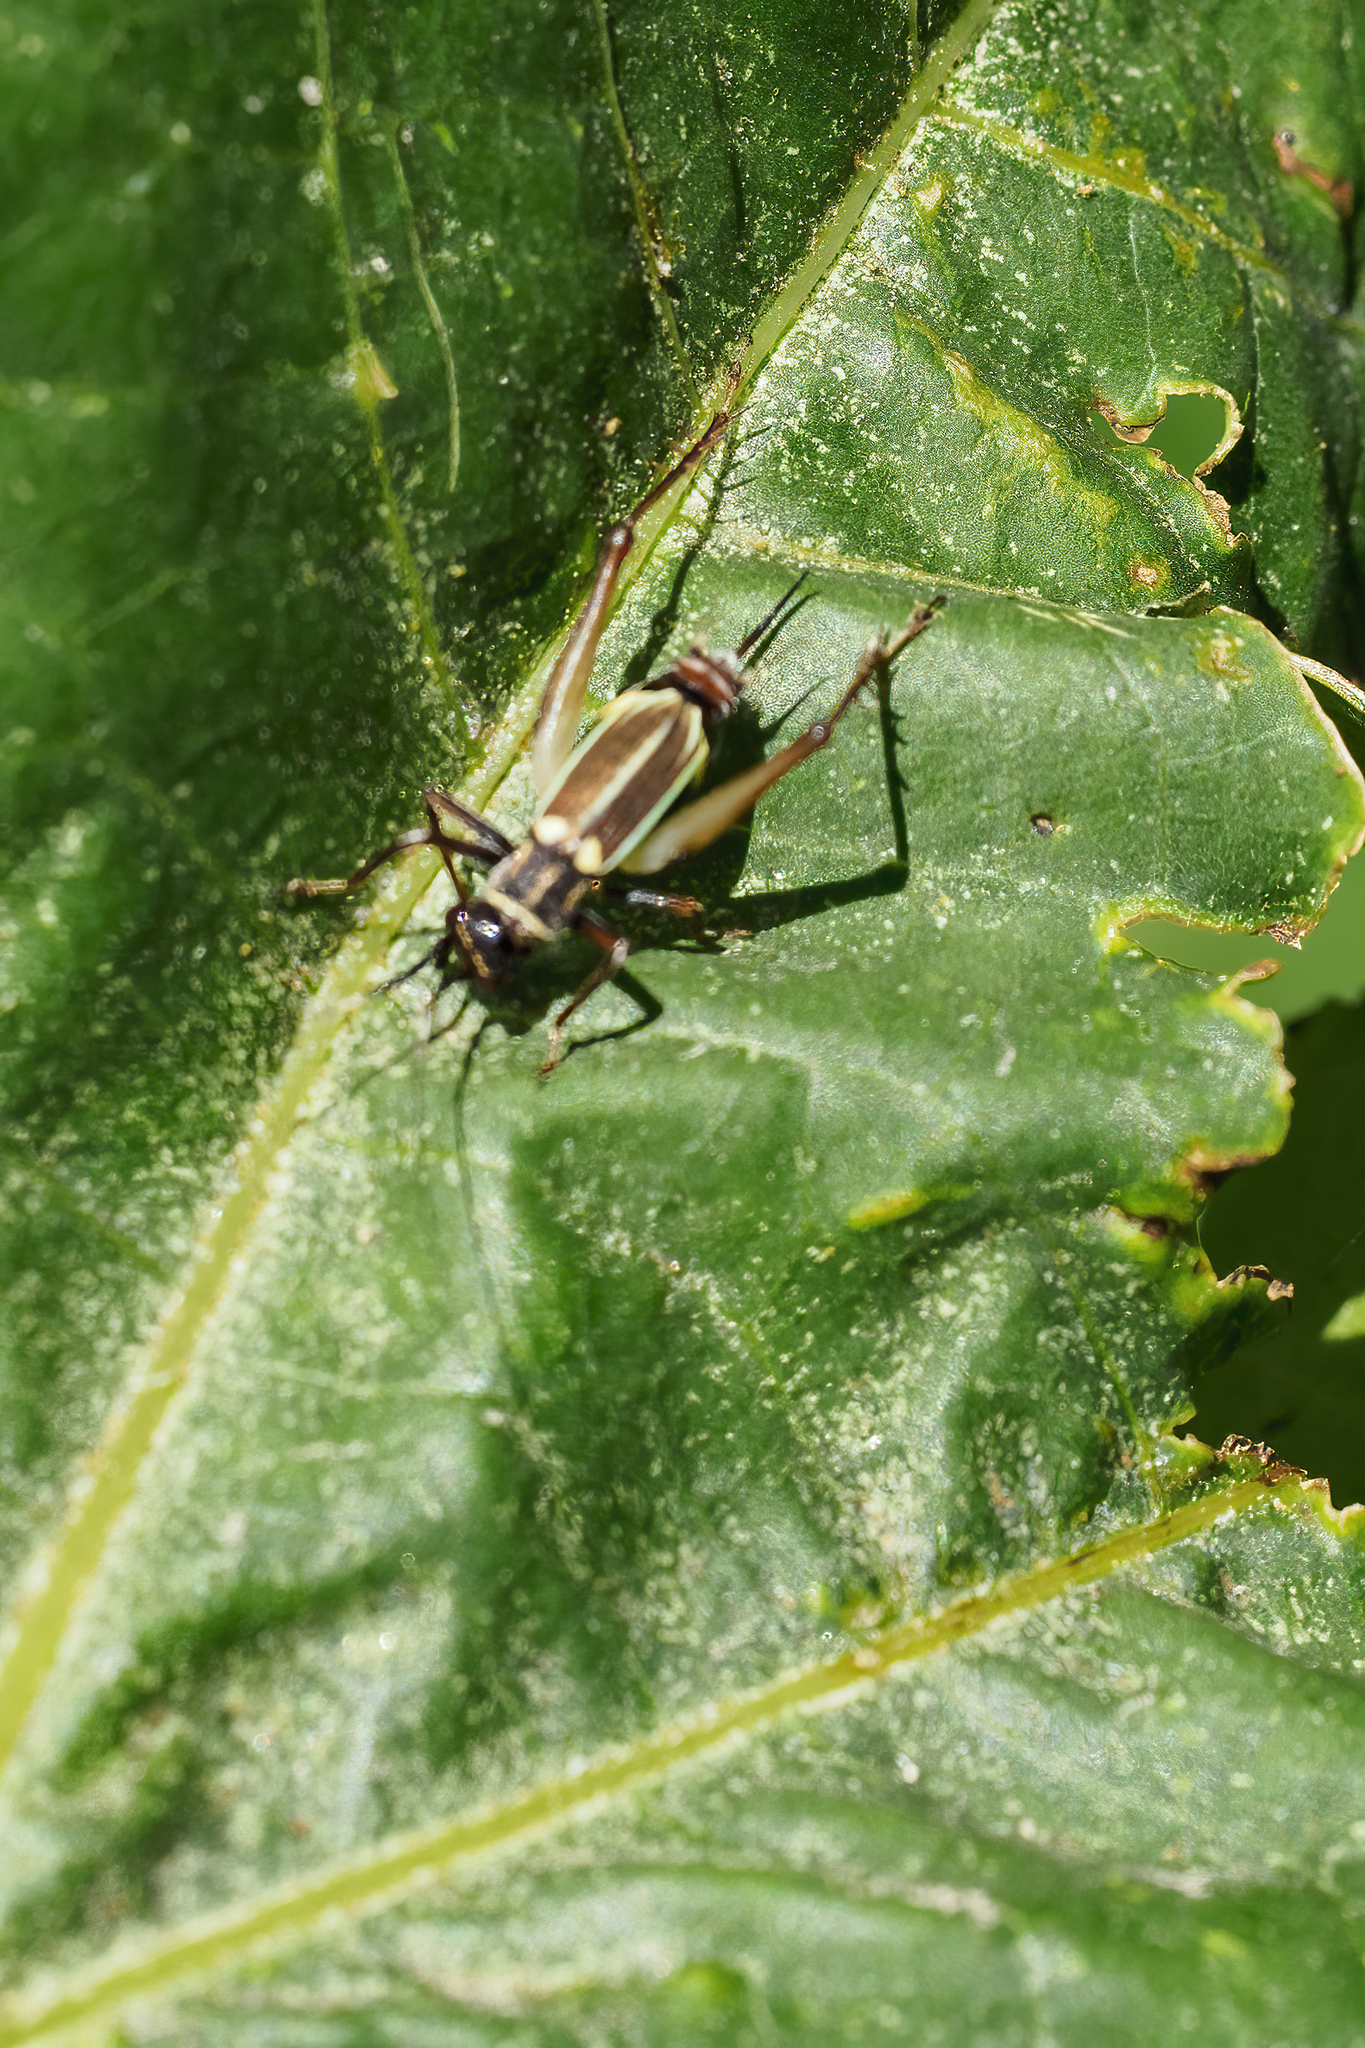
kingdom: Animalia
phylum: Arthropoda
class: Insecta
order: Orthoptera
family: Trigonidiidae
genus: Phylloscyrtus
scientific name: Phylloscyrtus amoenus
